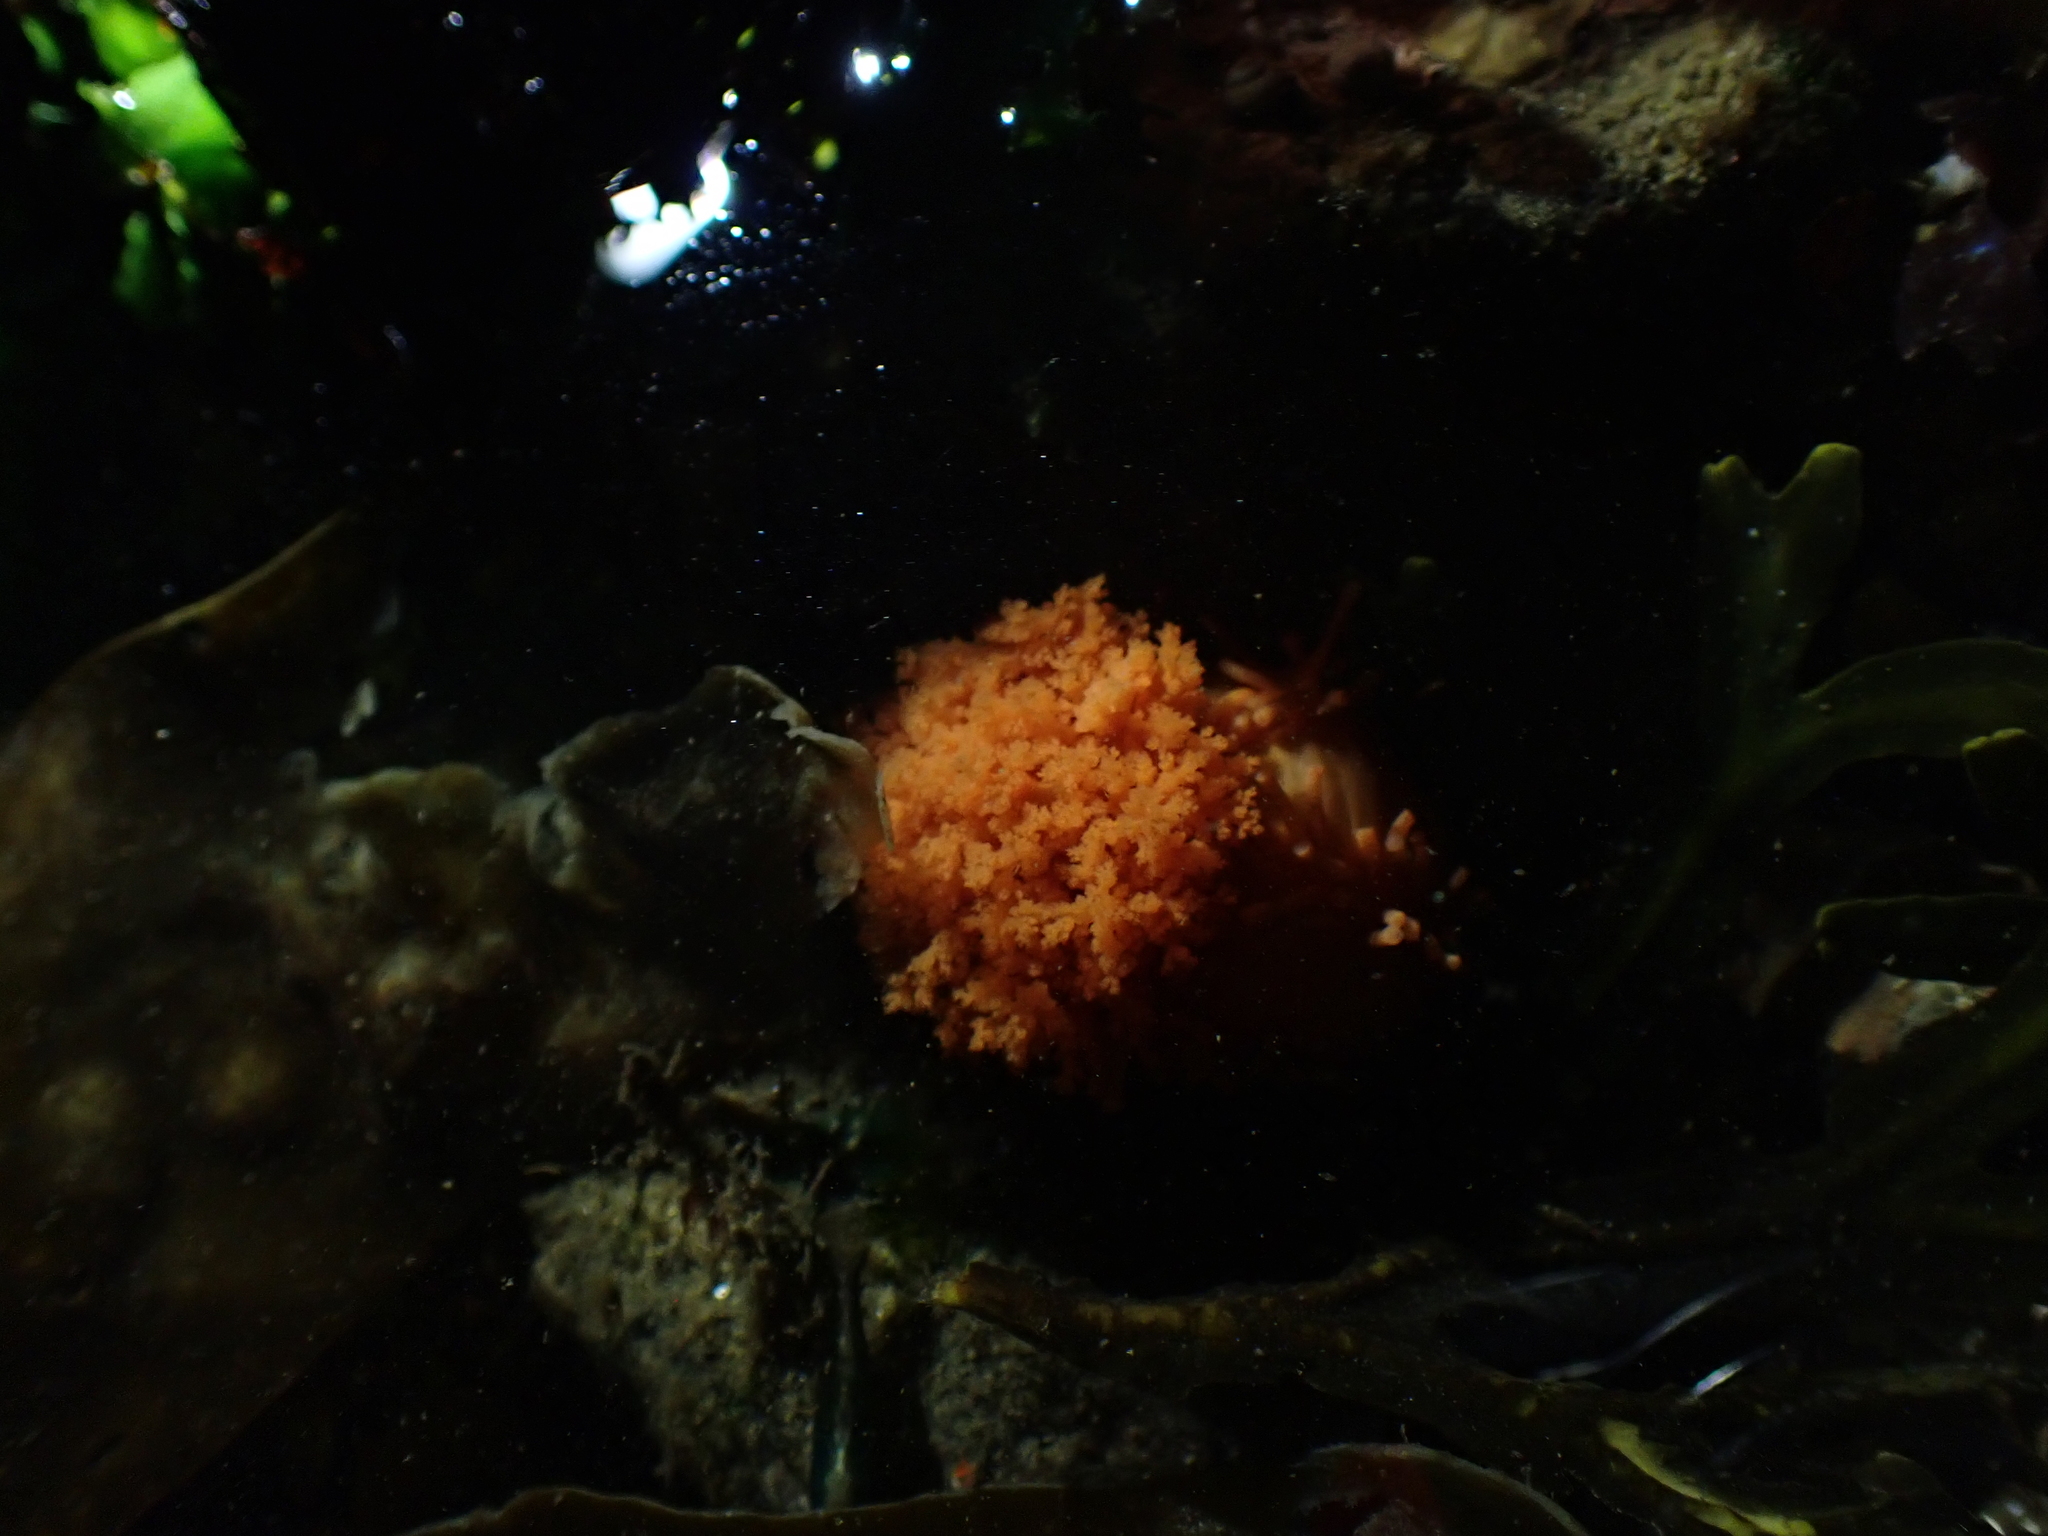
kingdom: Animalia
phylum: Echinodermata
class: Holothuroidea
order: Dendrochirotida
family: Cucumariidae
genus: Cucumaria
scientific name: Cucumaria miniata
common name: Orange sea cucumber
